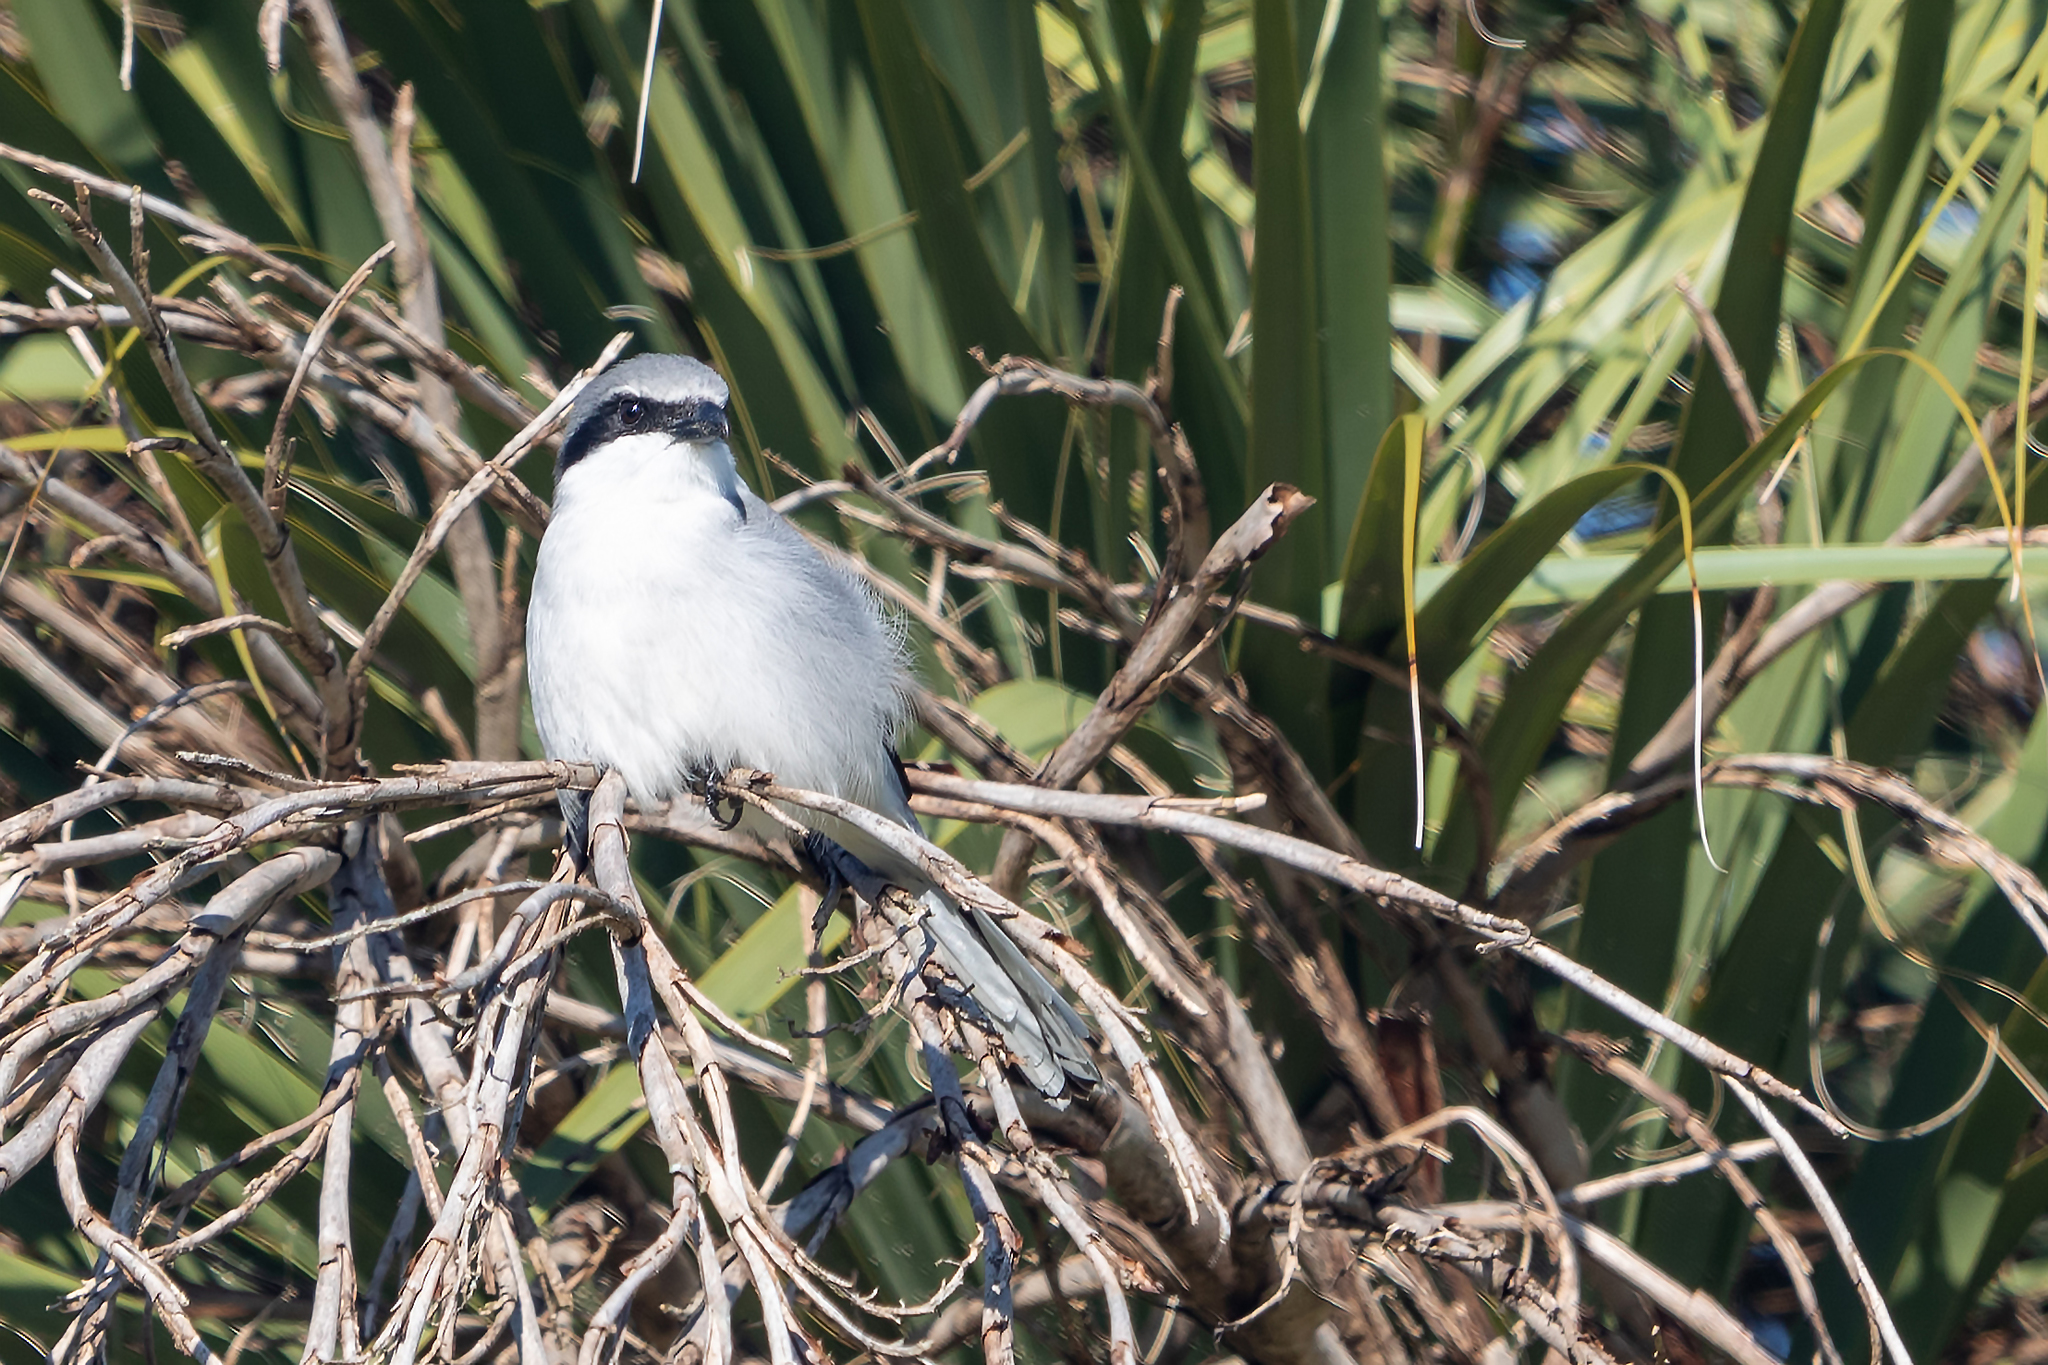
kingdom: Animalia
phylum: Chordata
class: Aves
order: Passeriformes
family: Laniidae
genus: Lanius
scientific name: Lanius ludovicianus
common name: Loggerhead shrike
